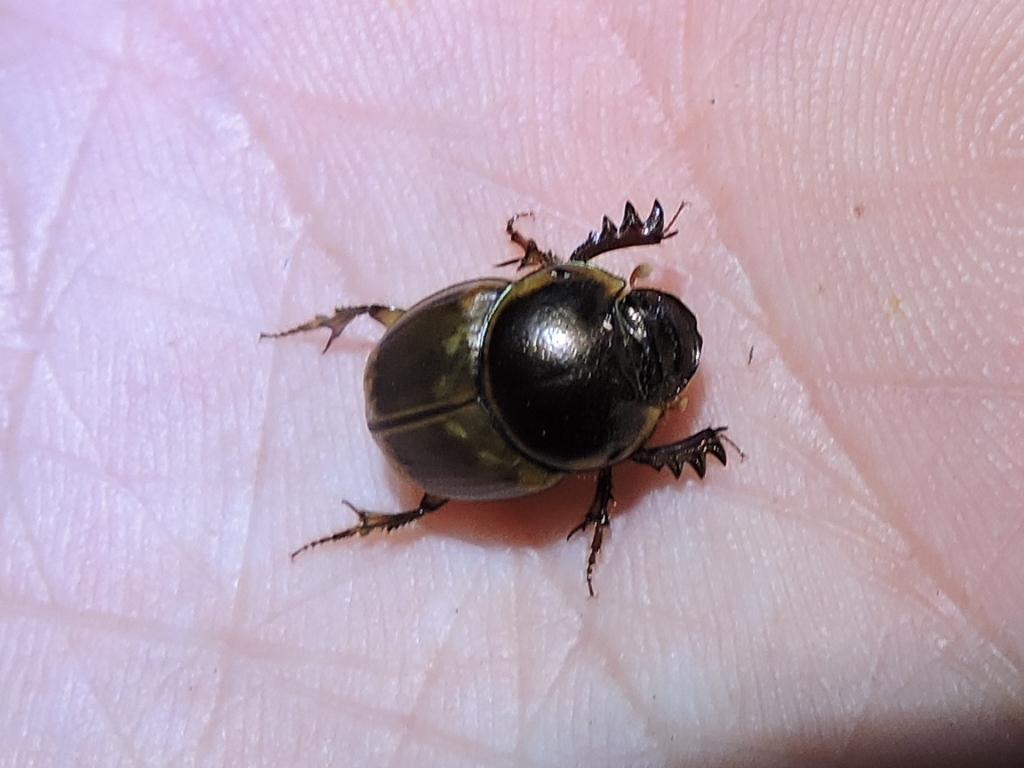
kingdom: Animalia
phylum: Arthropoda
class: Insecta
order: Coleoptera
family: Scarabaeidae
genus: Digitonthophagus
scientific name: Digitonthophagus gazella
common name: Brown dung beetle
